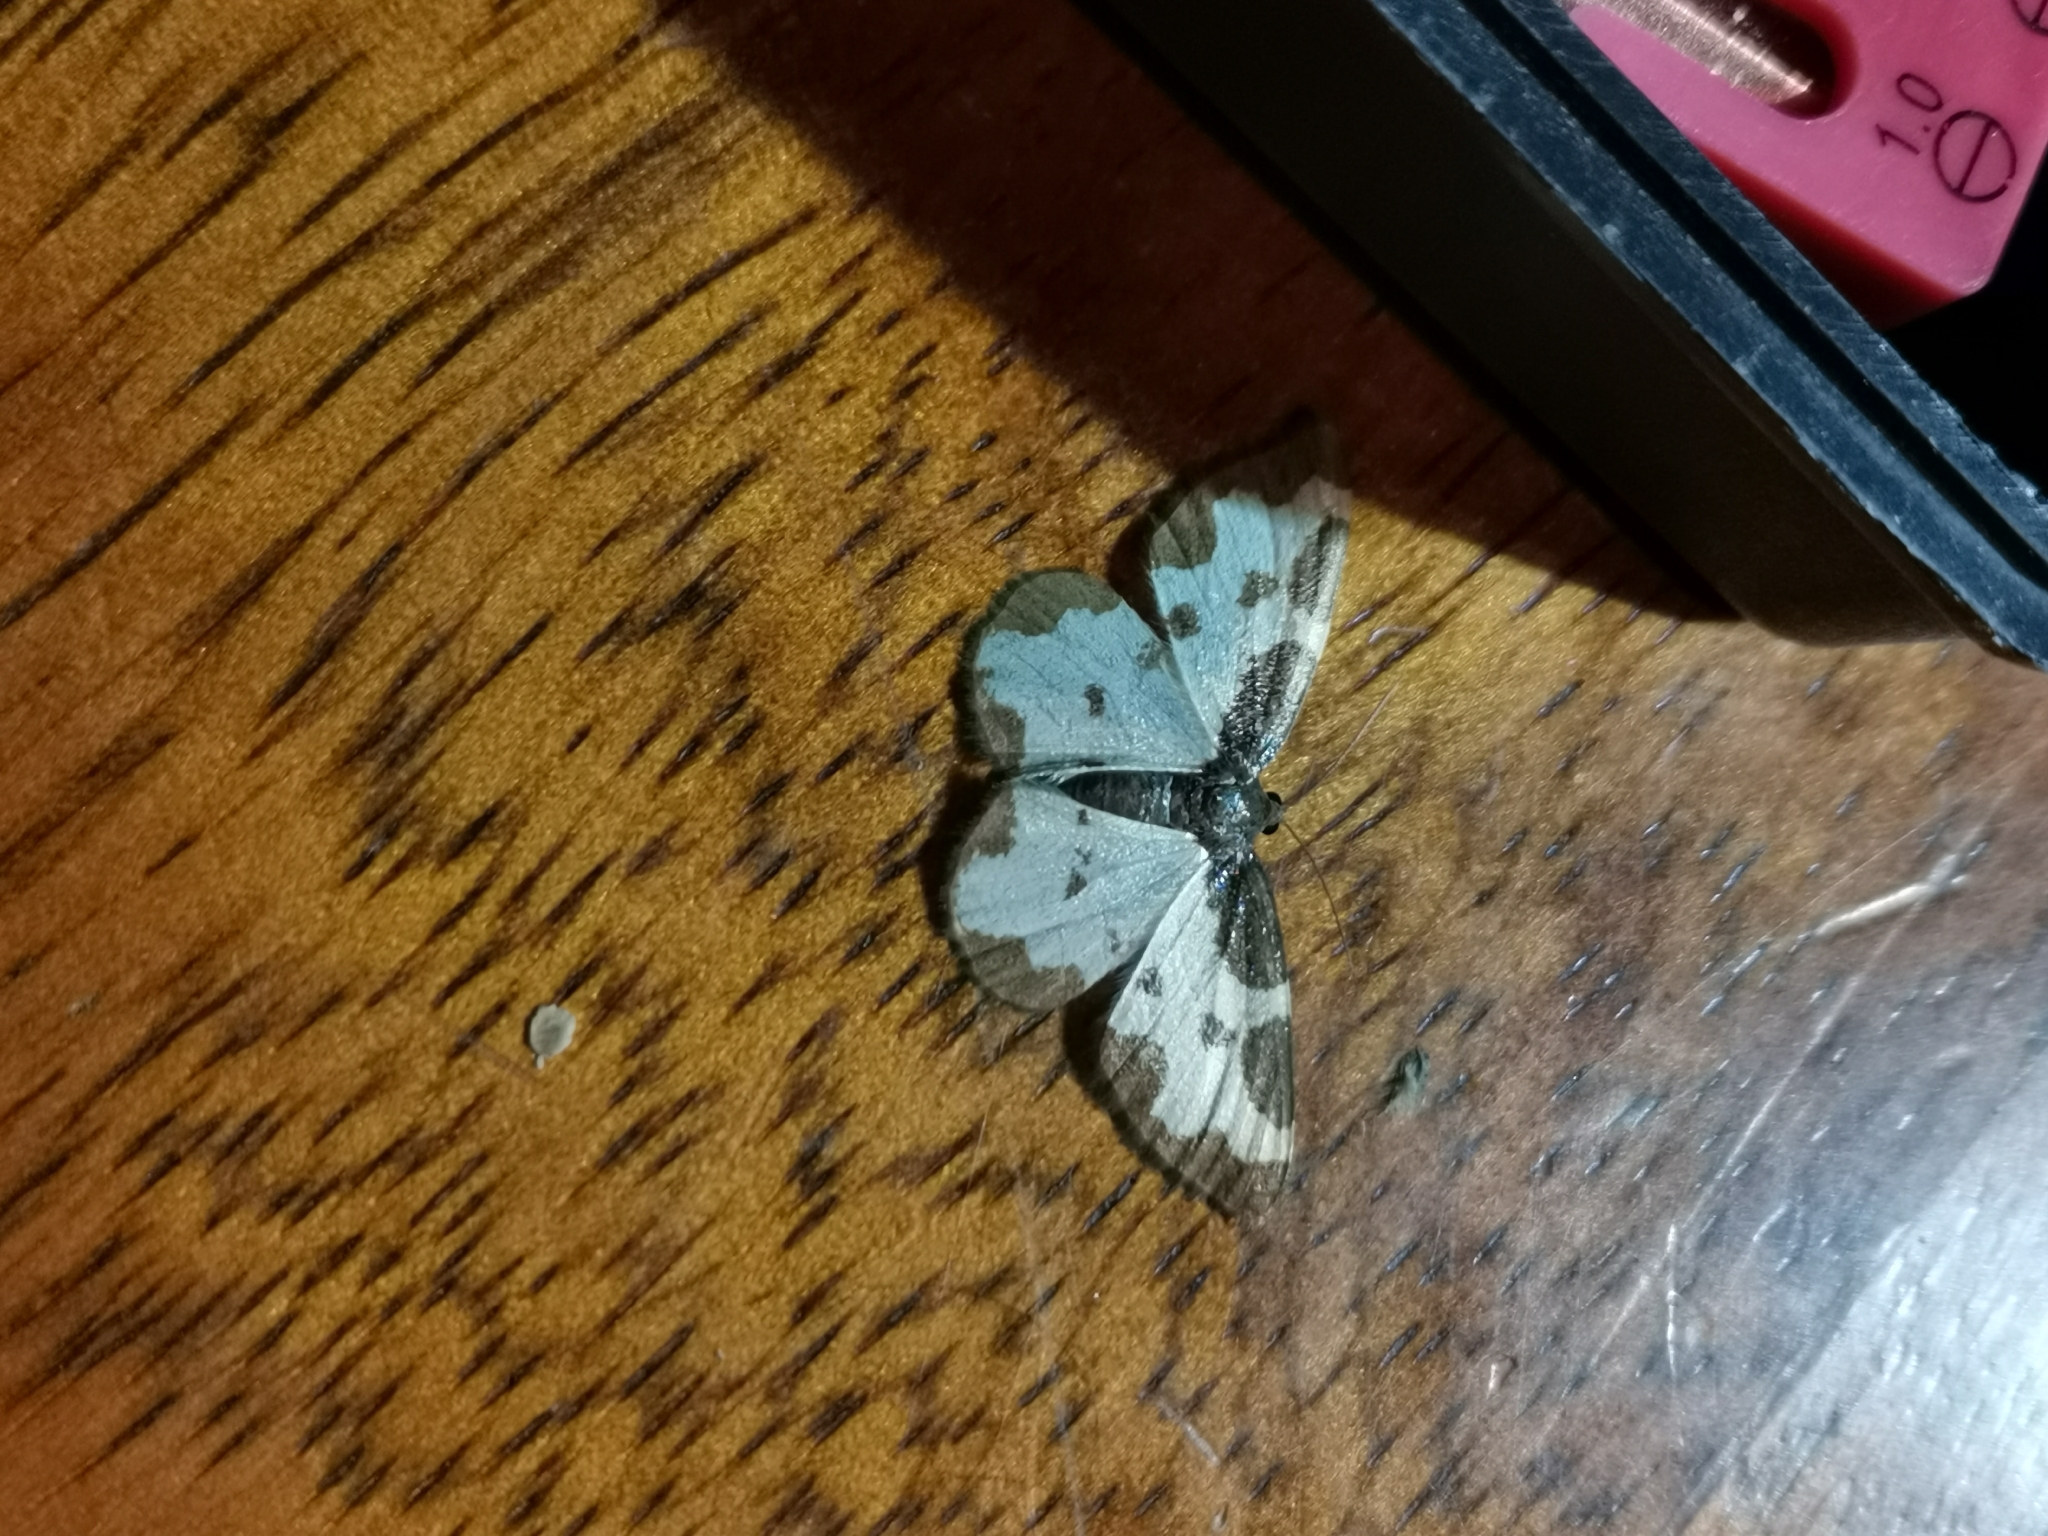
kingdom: Animalia
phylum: Arthropoda
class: Insecta
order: Lepidoptera
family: Geometridae
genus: Lomaspilis
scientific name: Lomaspilis marginata
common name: Clouded border
